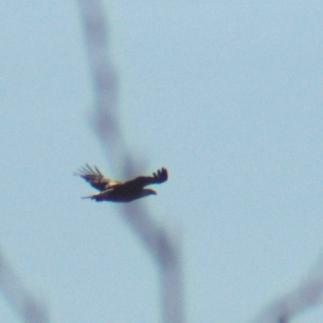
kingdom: Animalia
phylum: Chordata
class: Aves
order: Accipitriformes
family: Accipitridae
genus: Haliaeetus
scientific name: Haliaeetus leucocephalus
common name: Bald eagle
